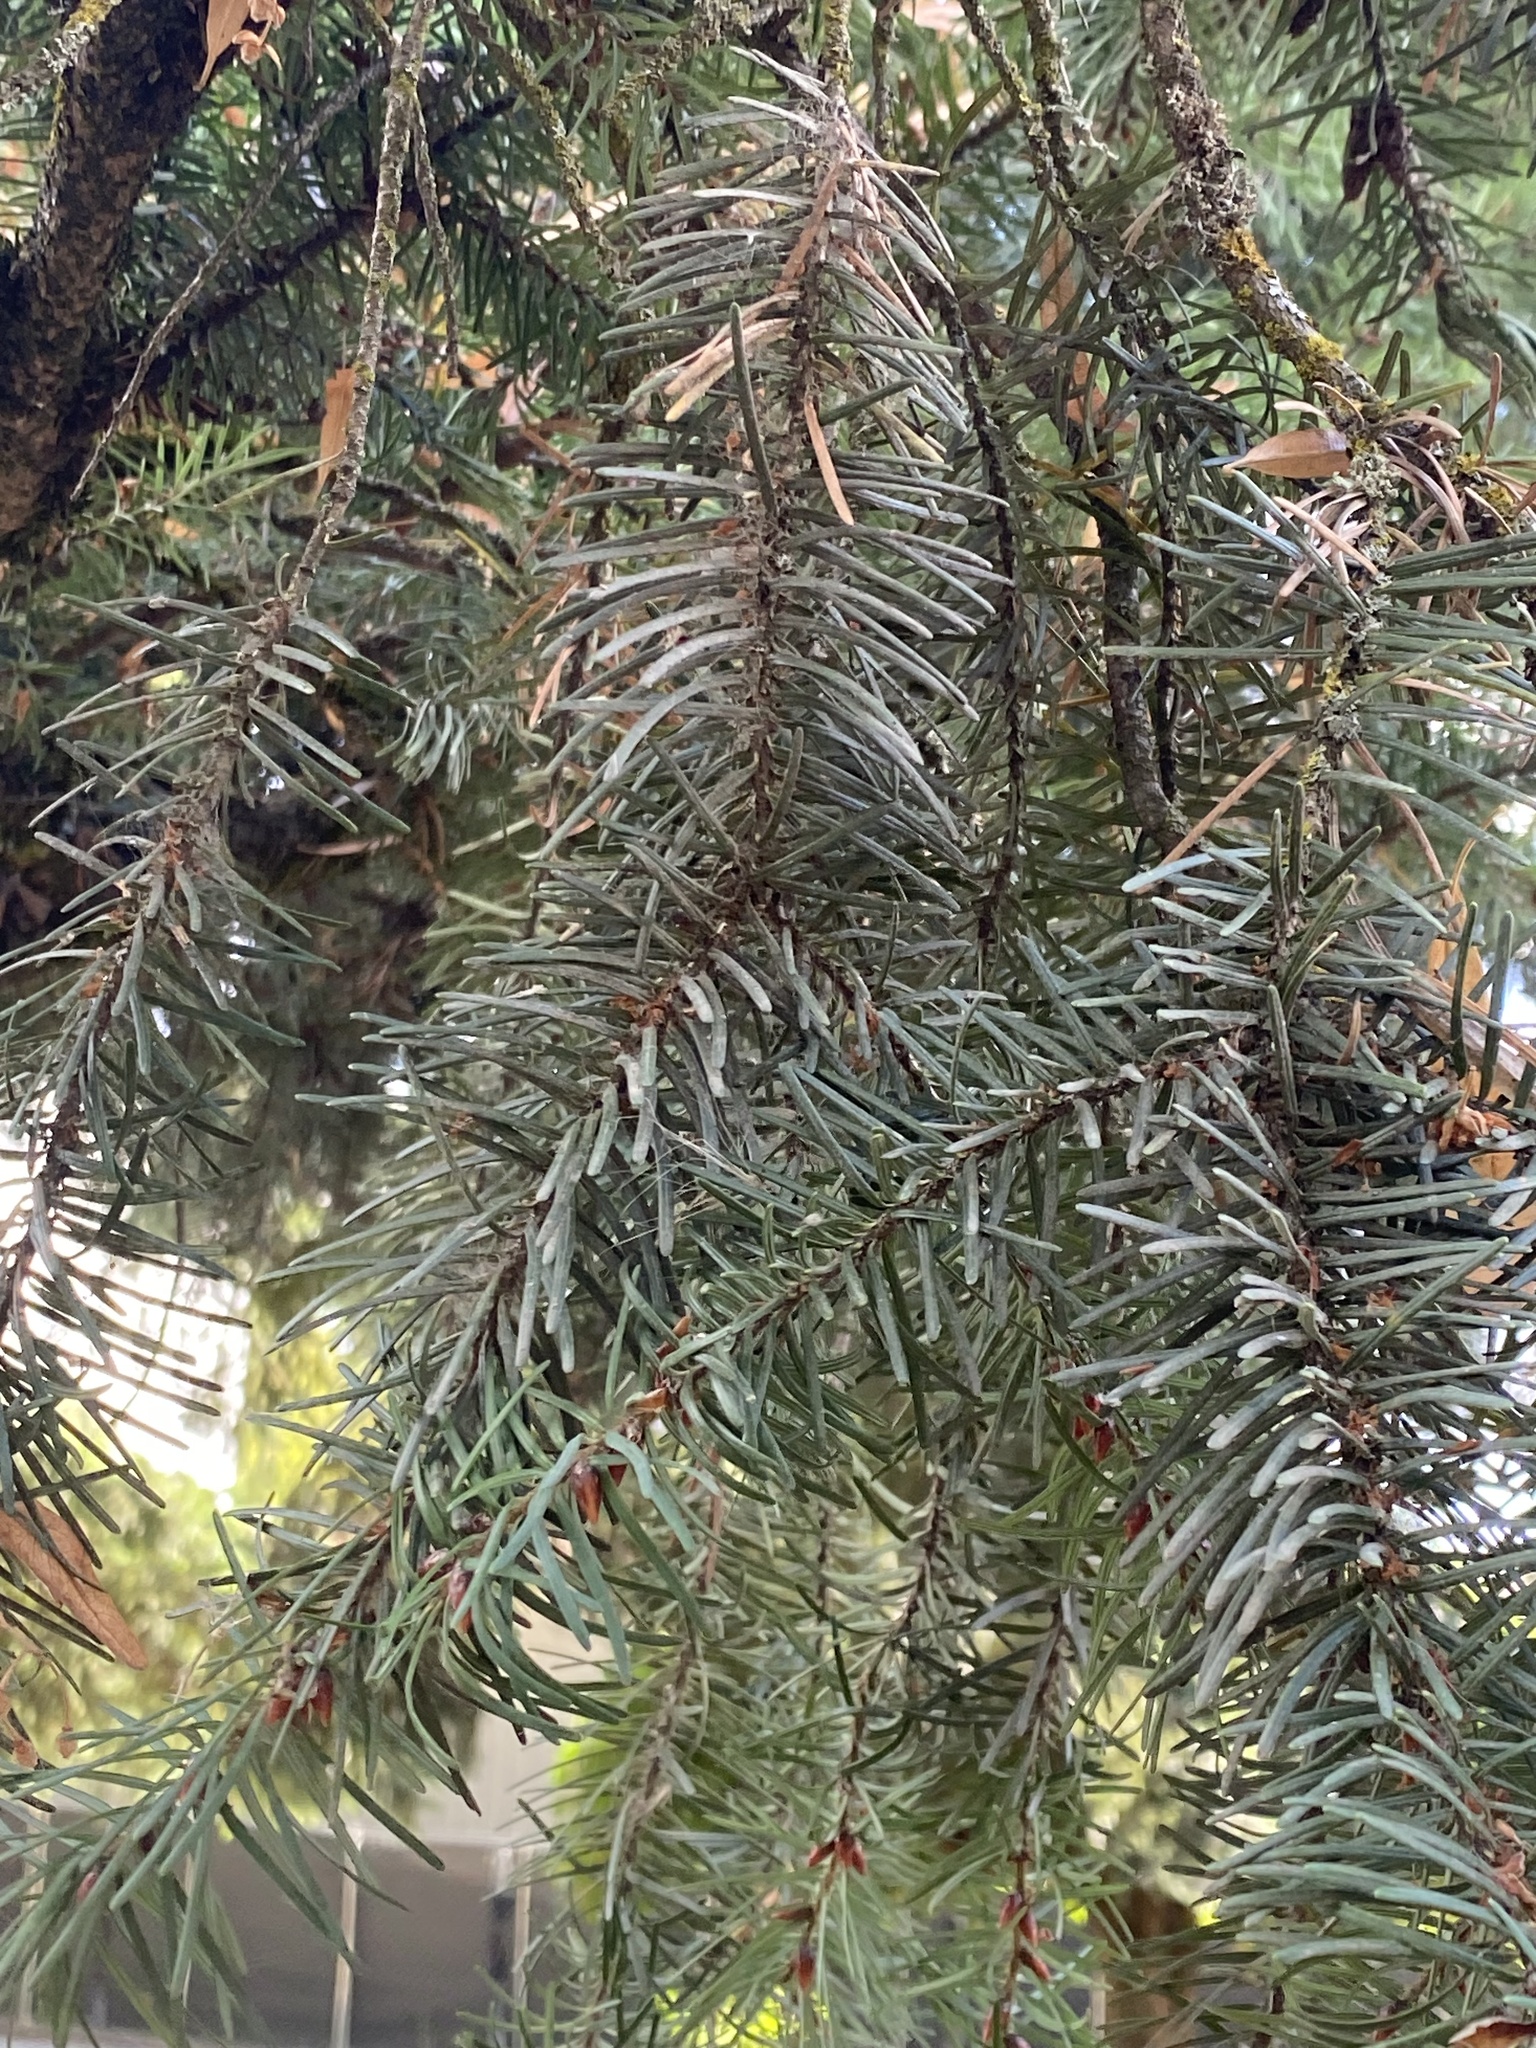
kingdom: Plantae
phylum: Tracheophyta
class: Pinopsida
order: Pinales
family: Pinaceae
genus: Pseudotsuga
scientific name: Pseudotsuga menziesii
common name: Douglas fir
